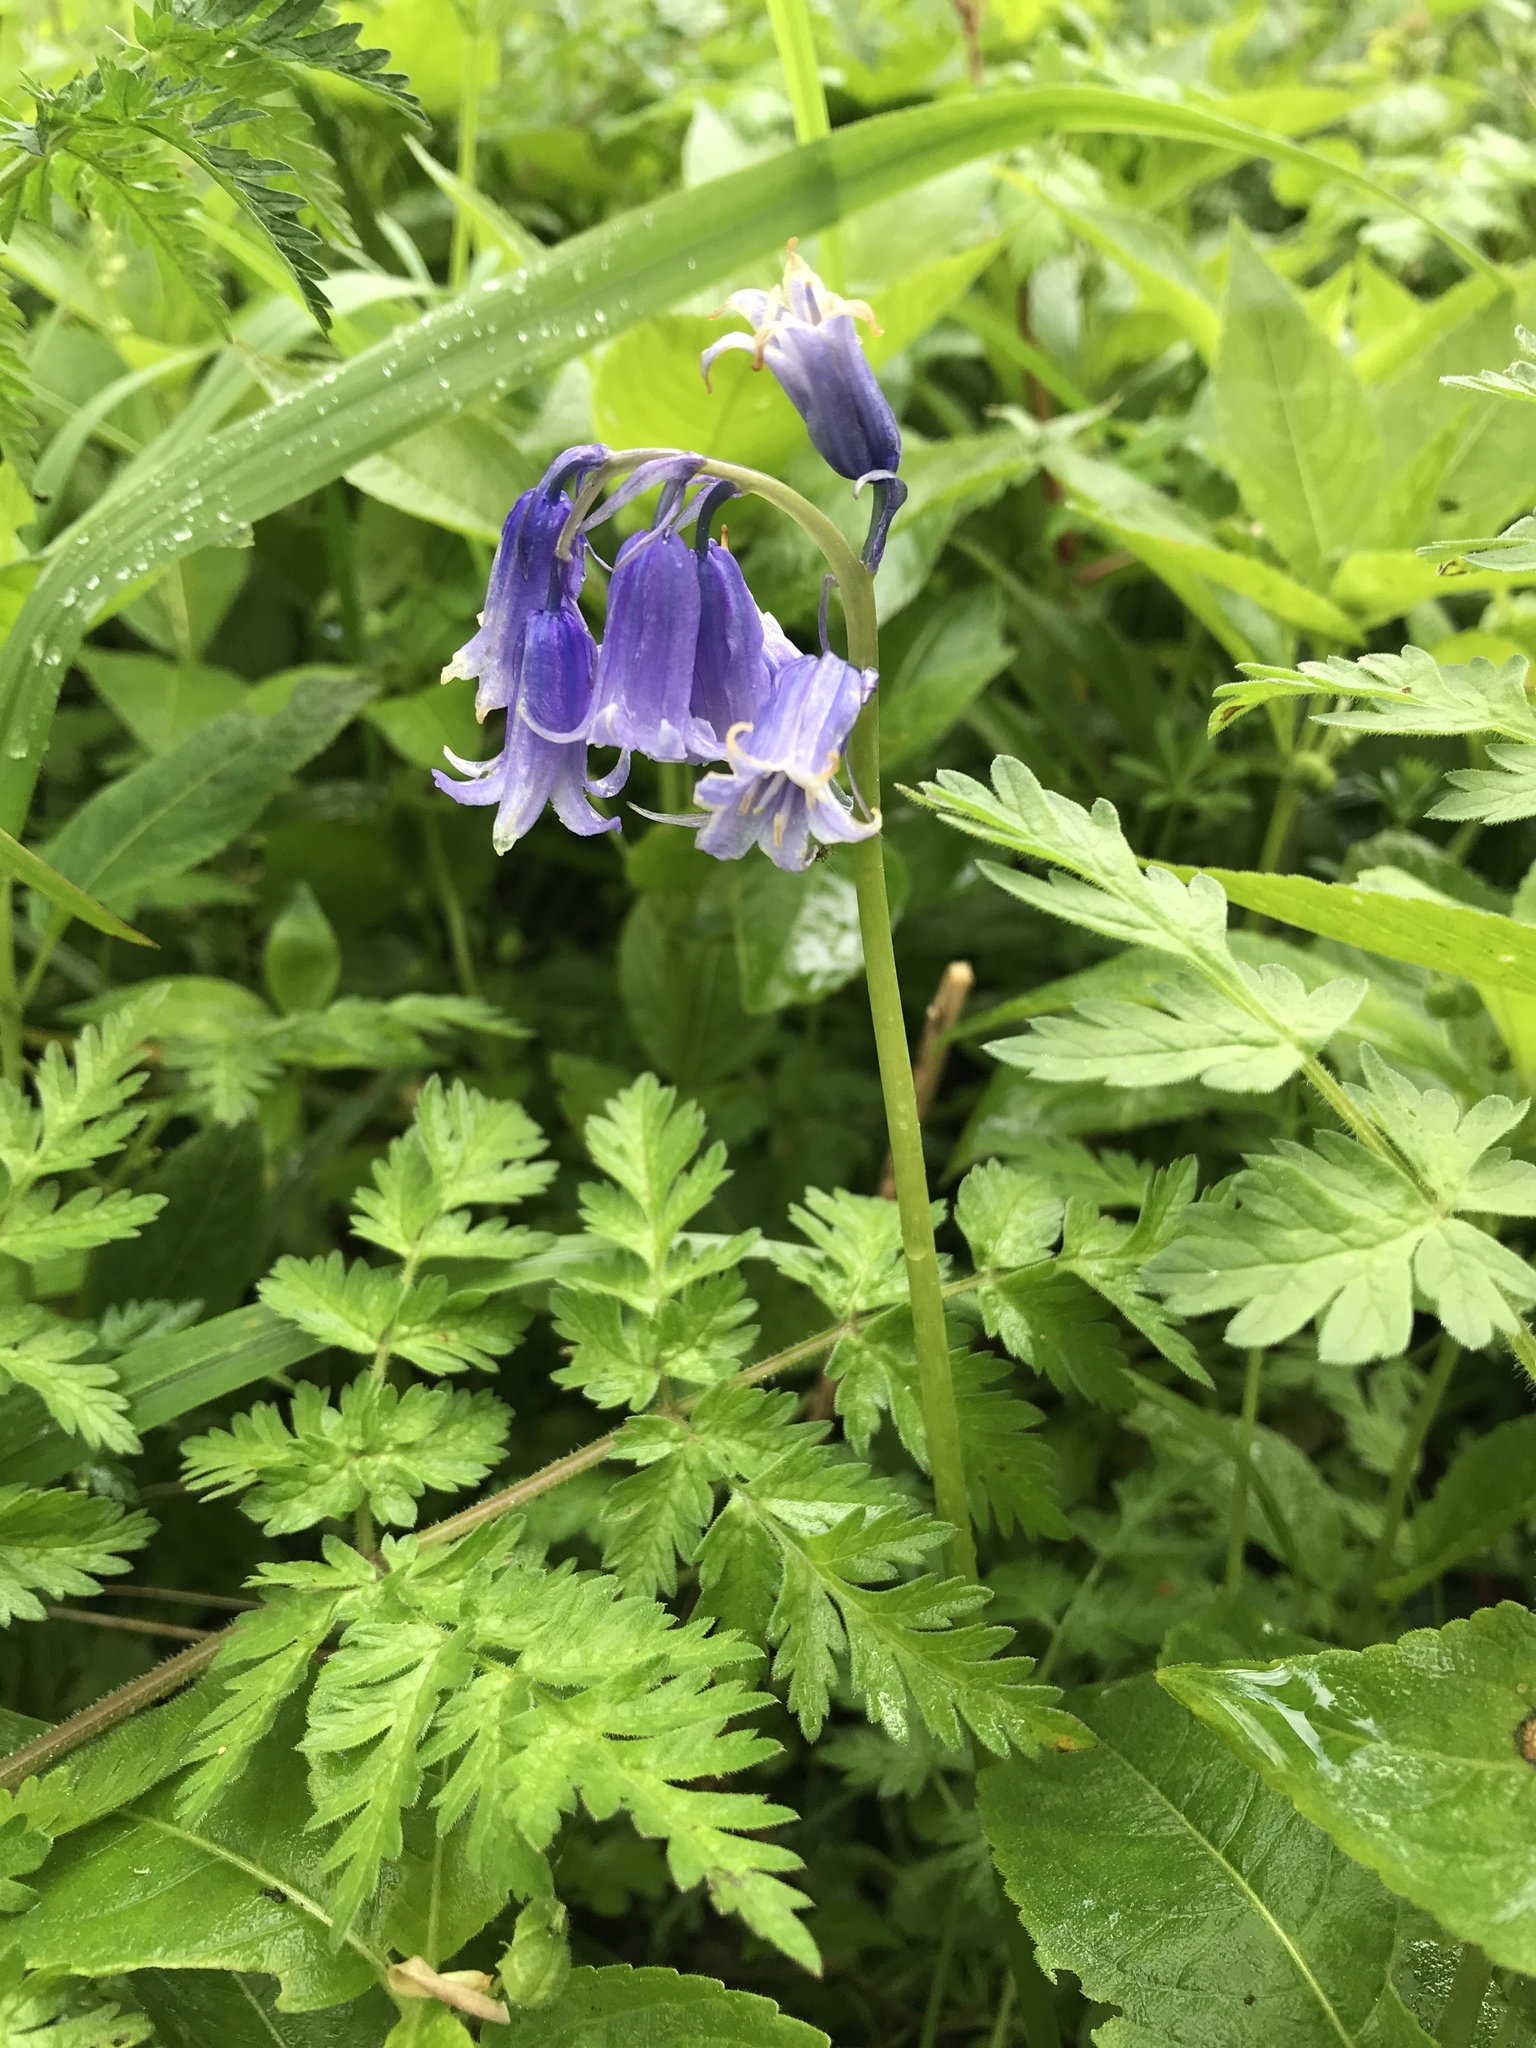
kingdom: Plantae
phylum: Tracheophyta
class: Liliopsida
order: Asparagales
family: Asparagaceae
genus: Hyacinthoides
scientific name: Hyacinthoides non-scripta
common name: Bluebell
